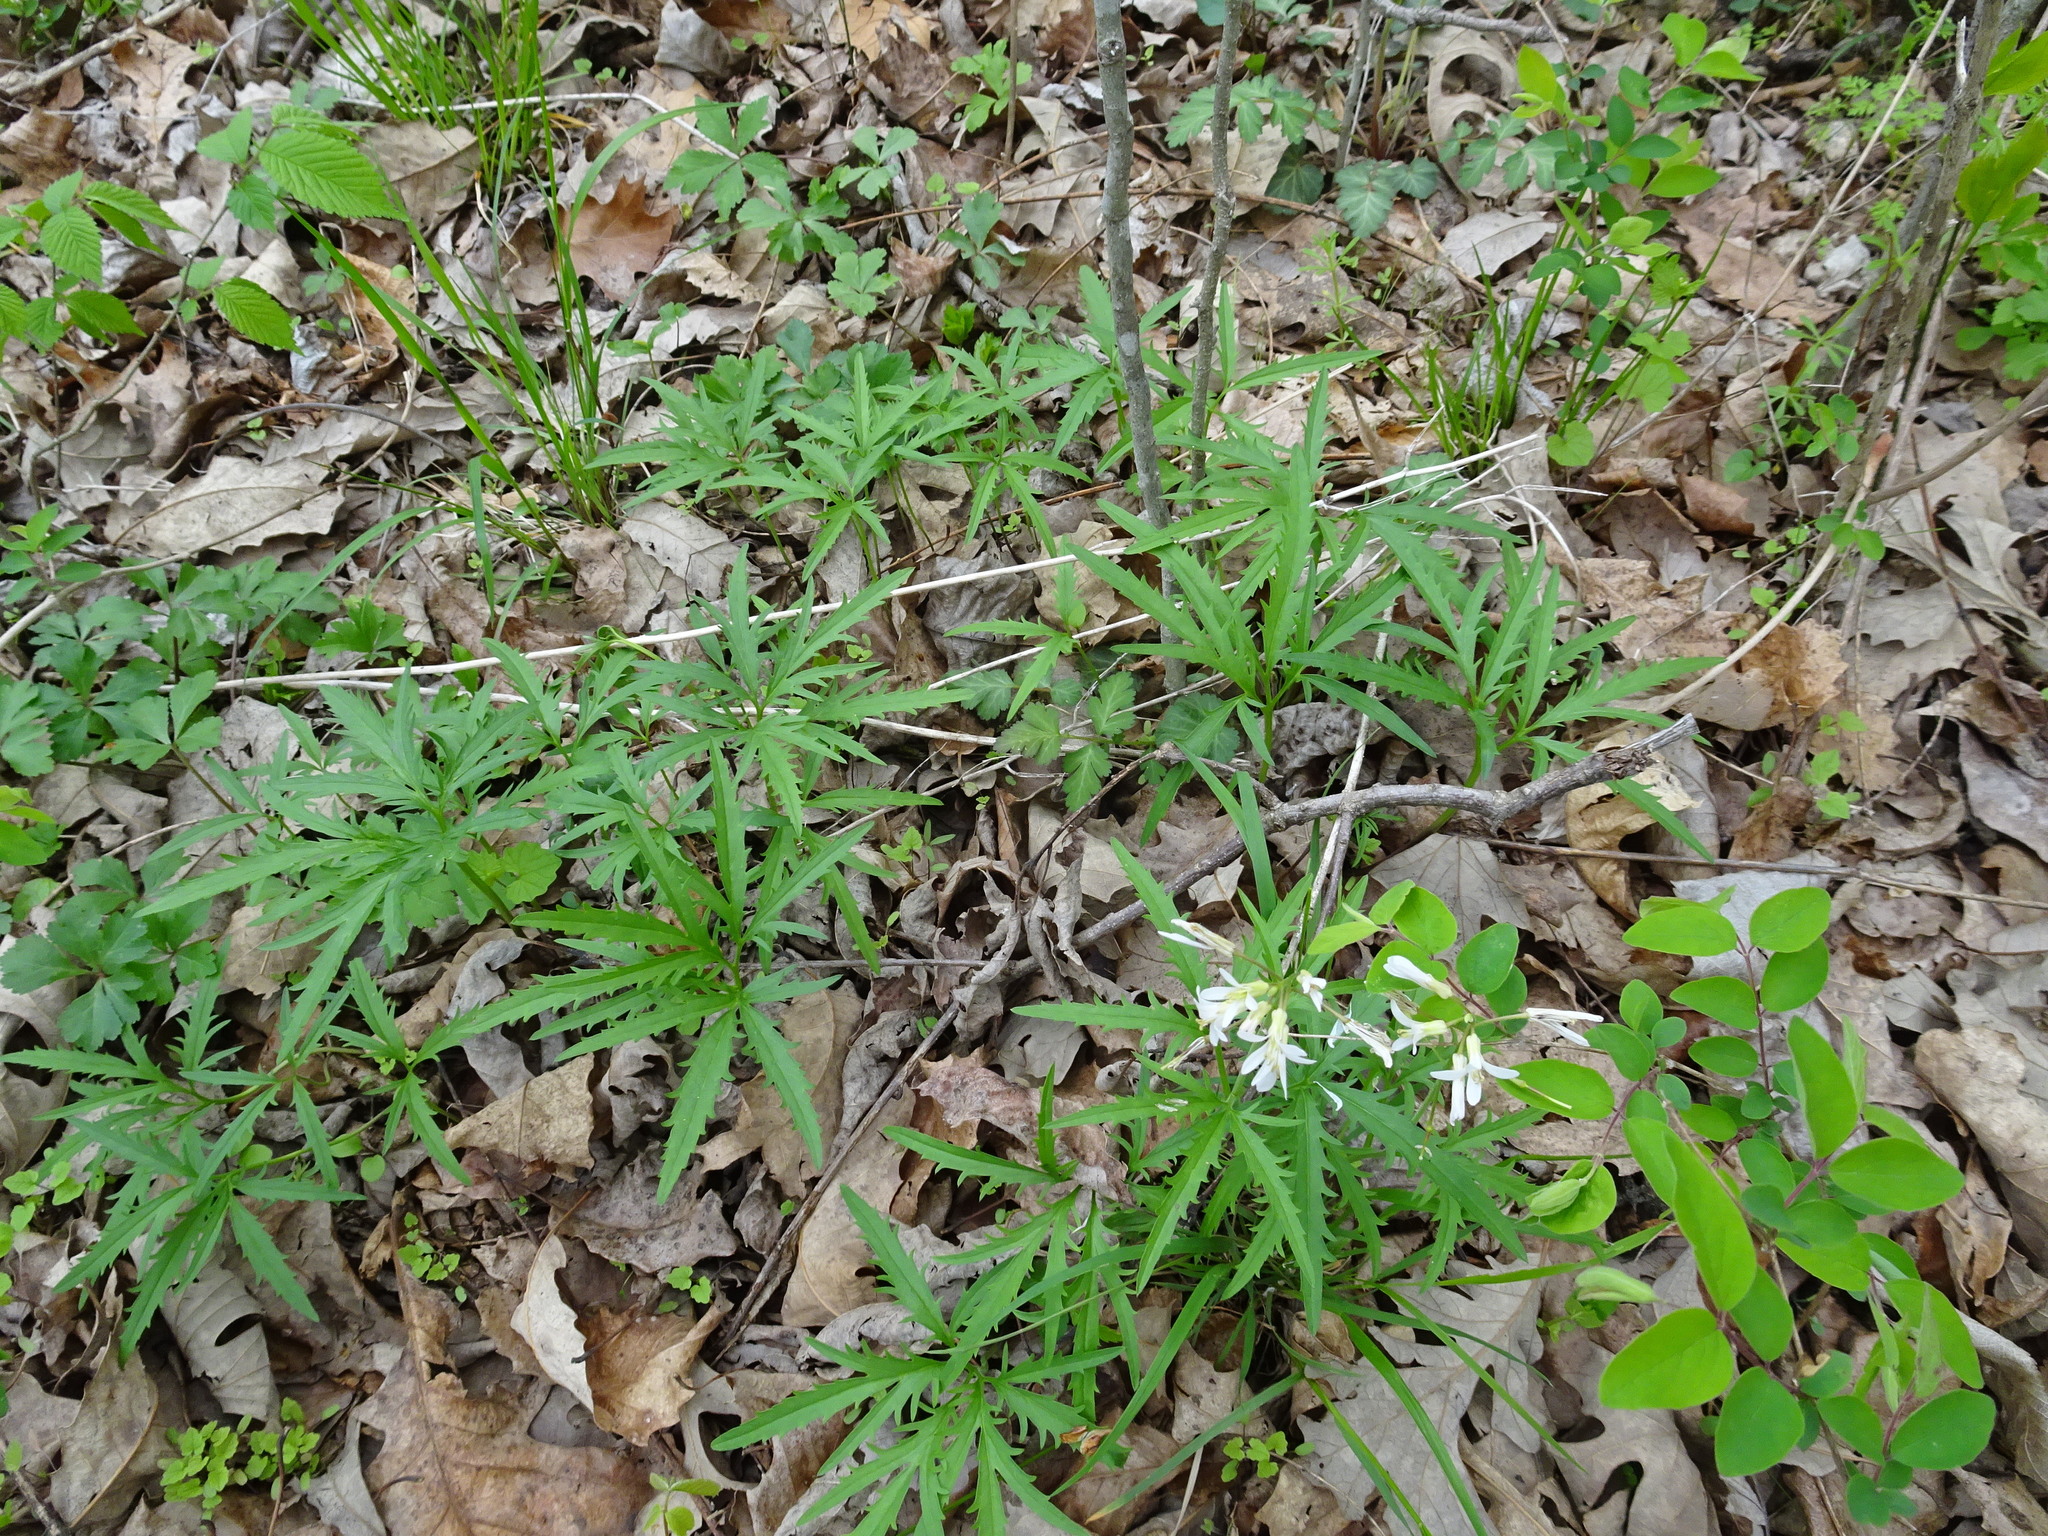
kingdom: Plantae
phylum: Tracheophyta
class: Magnoliopsida
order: Brassicales
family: Brassicaceae
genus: Cardamine
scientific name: Cardamine concatenata
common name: Cut-leaf toothcup
